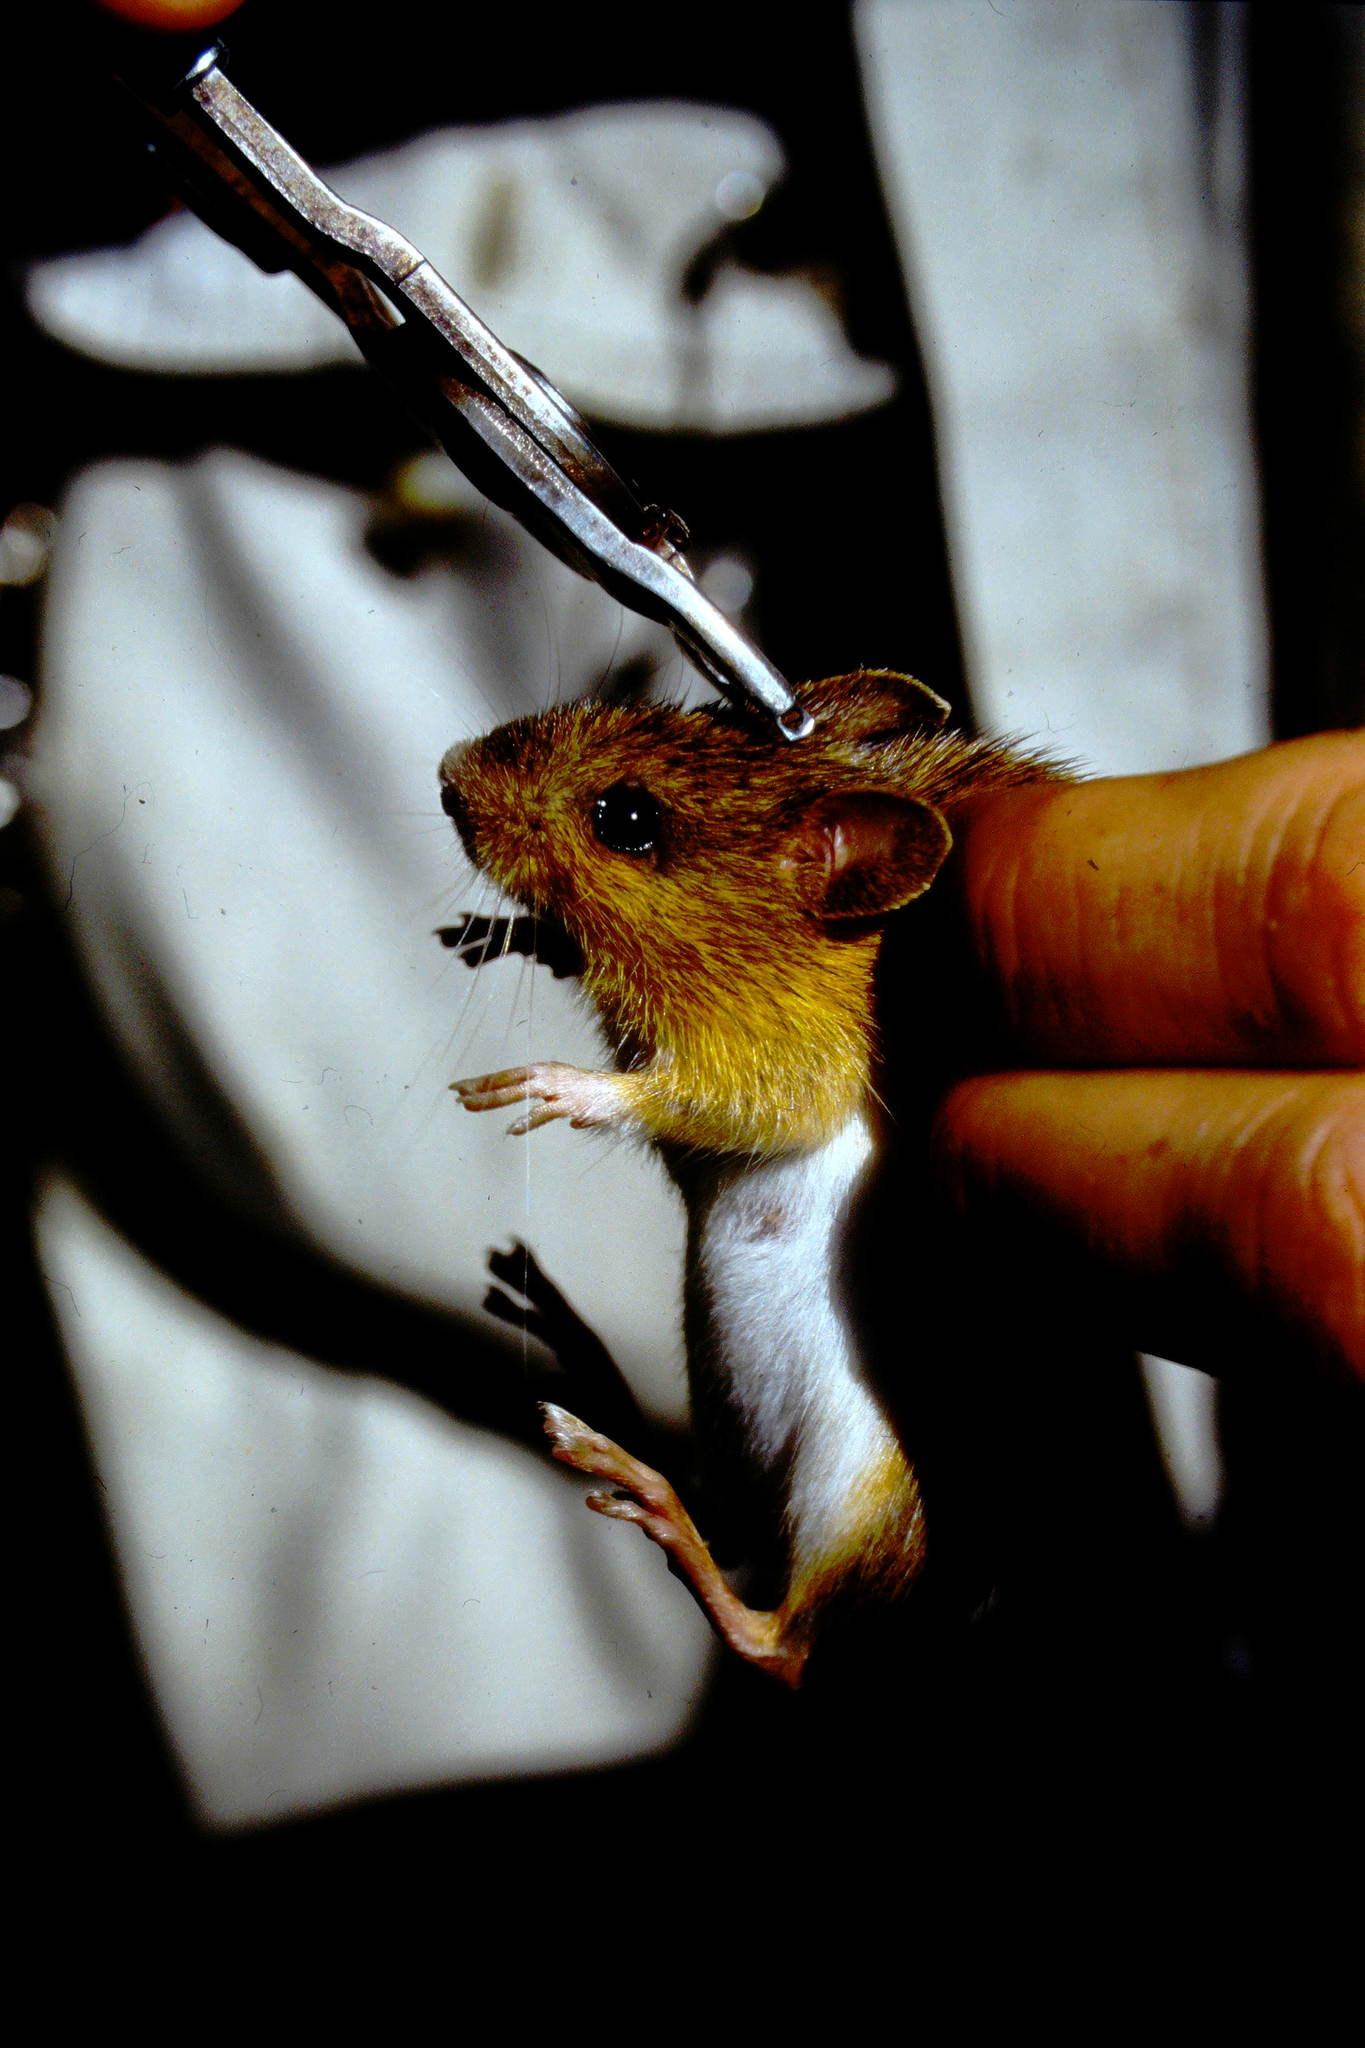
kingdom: Animalia
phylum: Chordata
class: Mammalia
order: Rodentia
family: Dipodidae
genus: Napaeozapus
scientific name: Napaeozapus insignis
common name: Woodland jumping mouse
